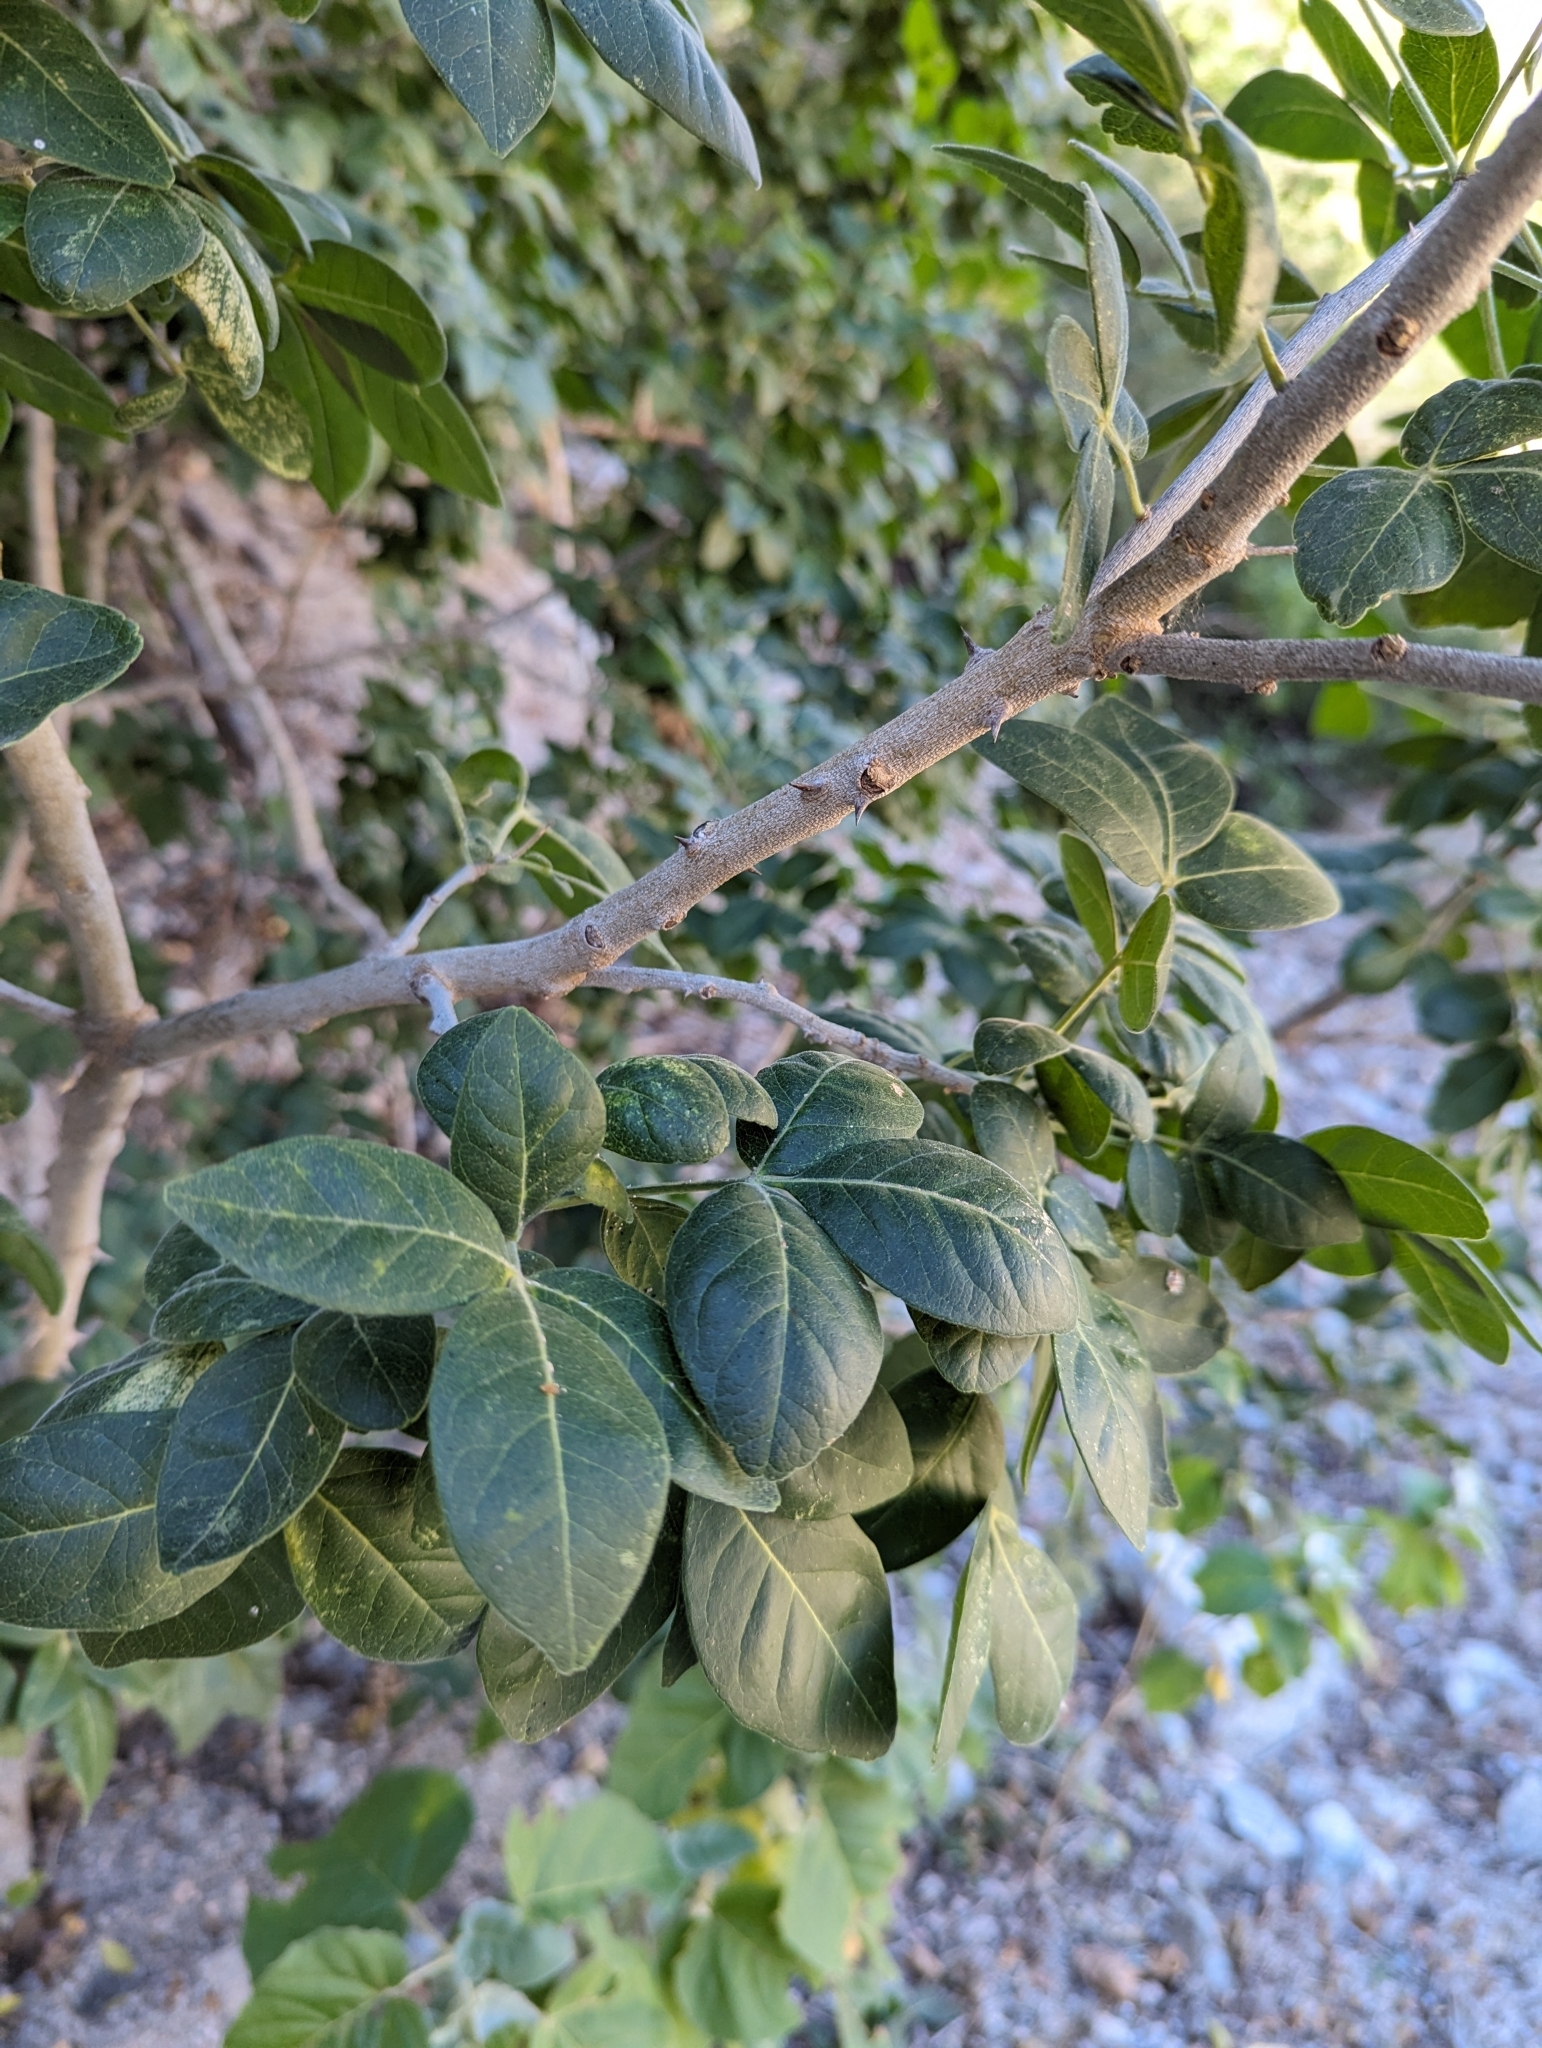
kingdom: Plantae
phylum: Tracheophyta
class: Magnoliopsida
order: Sapindales
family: Rutaceae
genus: Zanthoxylum
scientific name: Zanthoxylum arborescens
